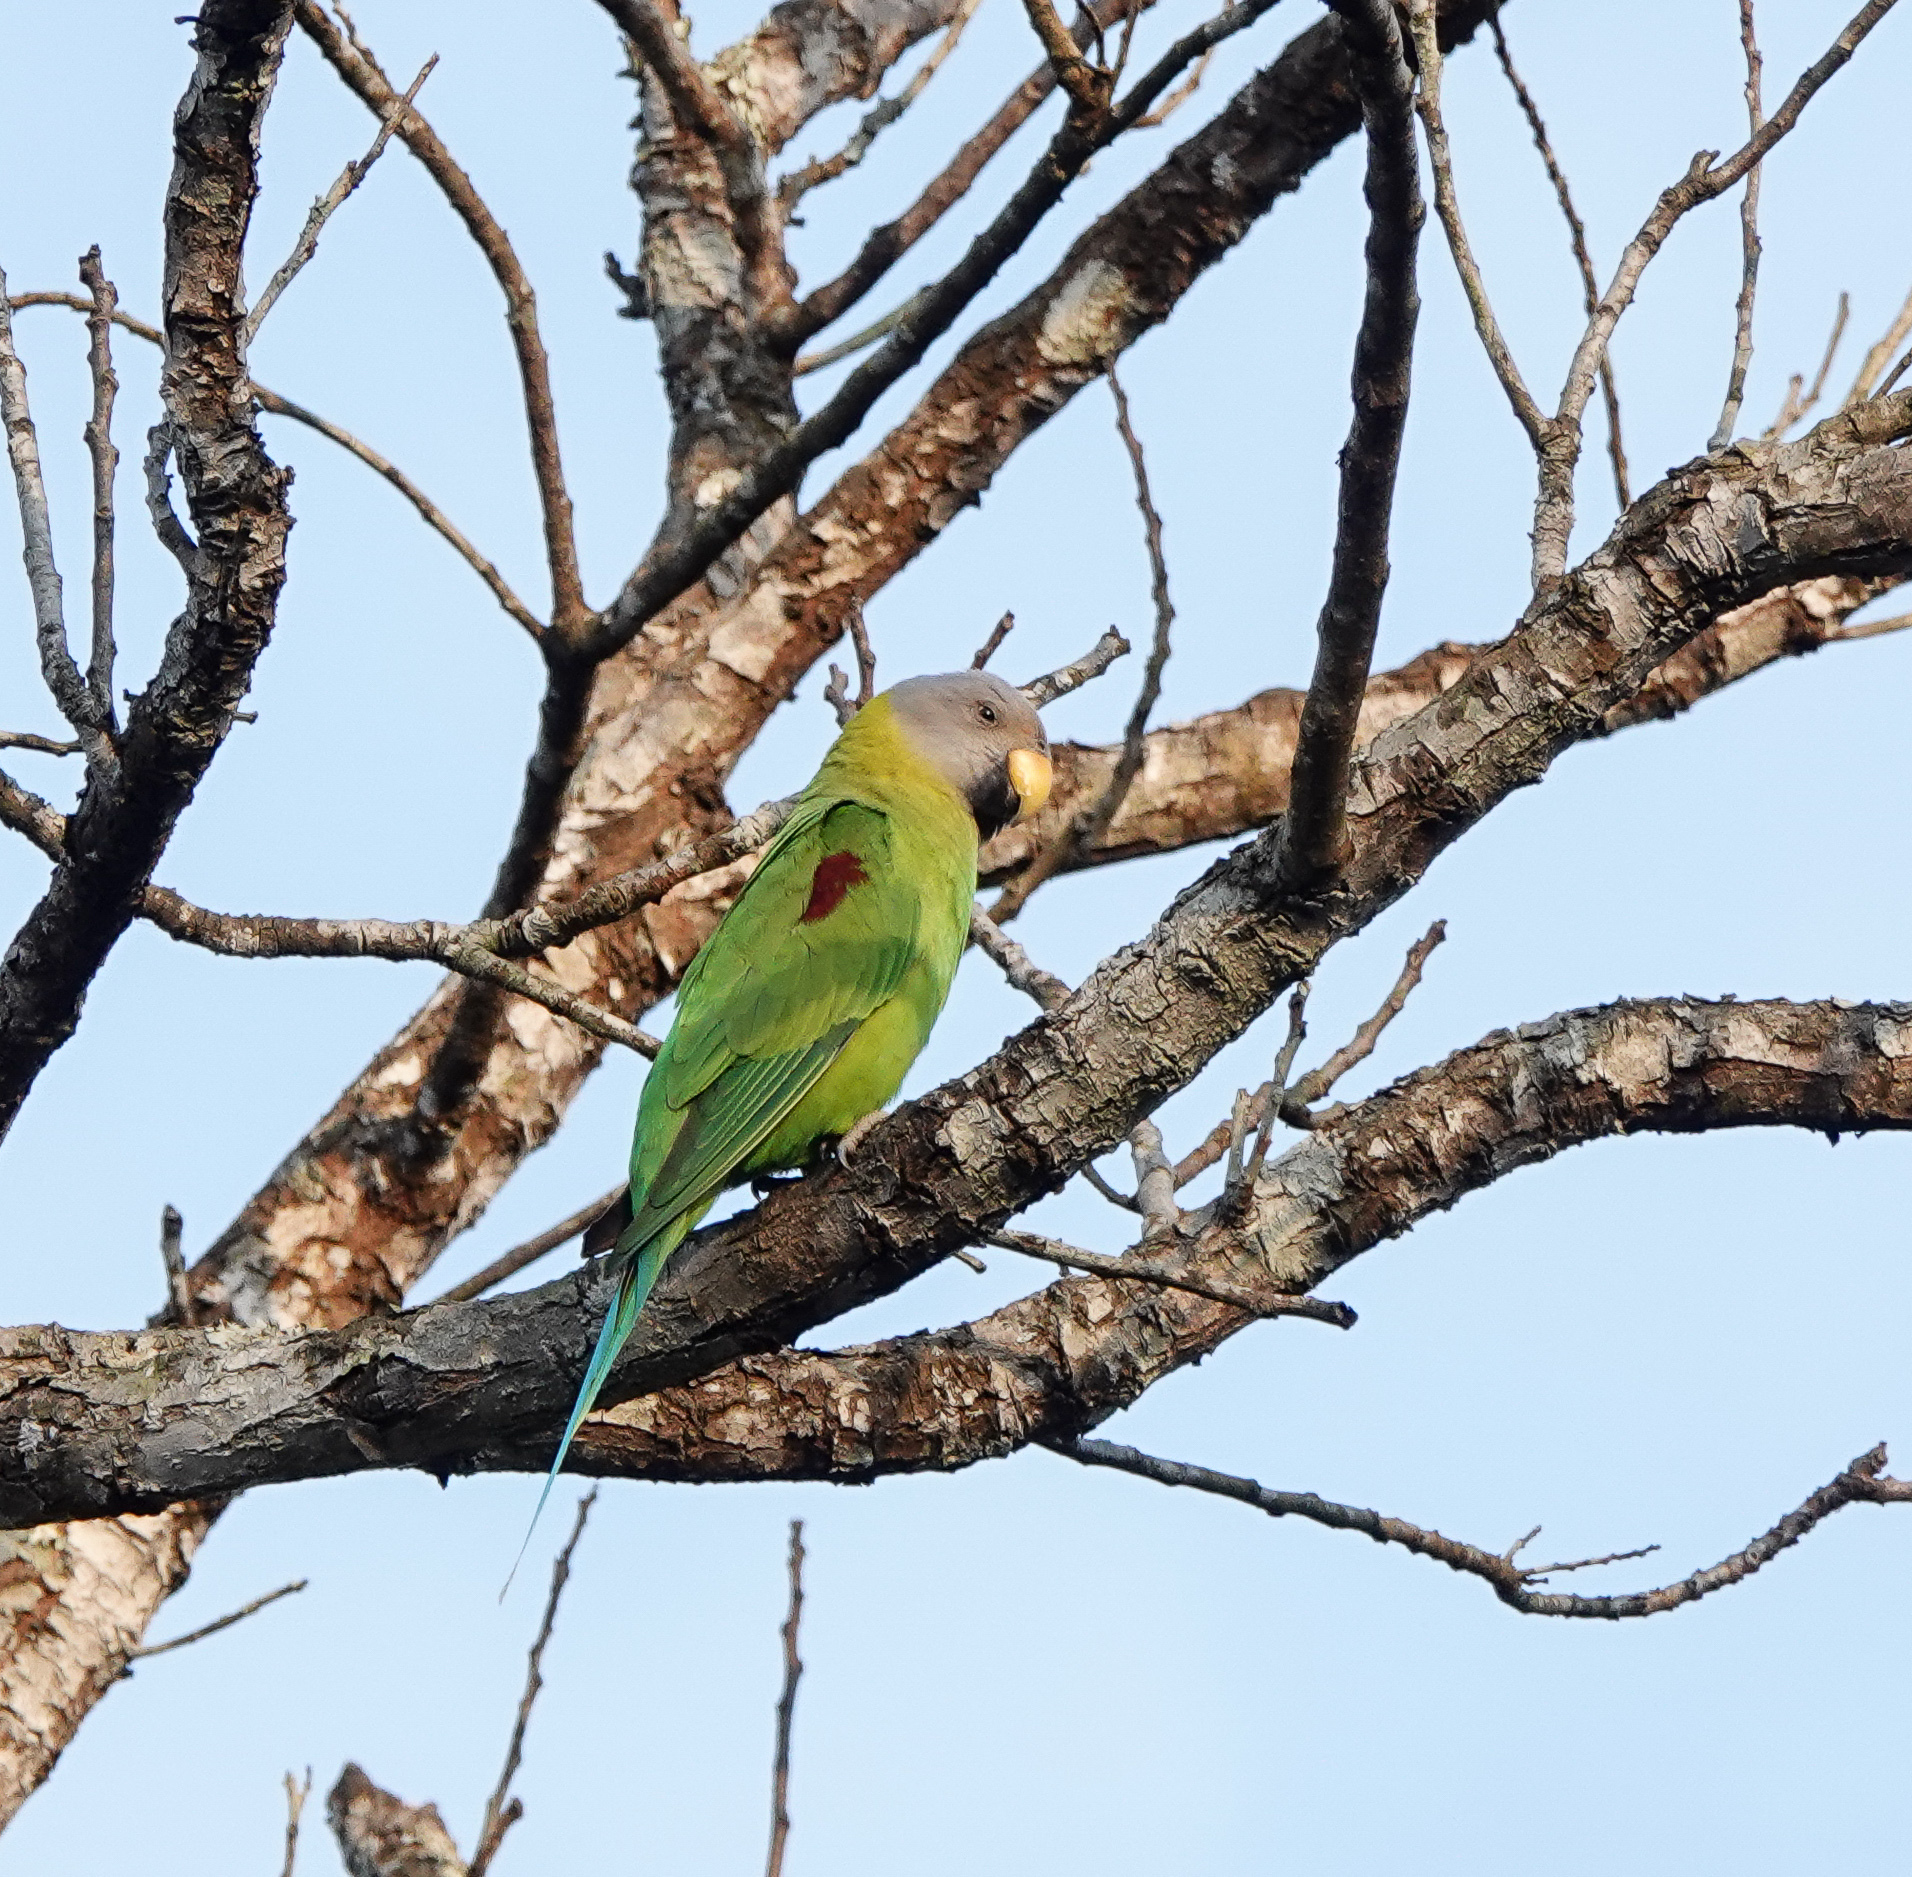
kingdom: Animalia
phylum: Chordata
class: Aves
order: Psittaciformes
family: Psittacidae
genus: Psittacula
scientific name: Psittacula roseata
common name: Blossom-headed parakeet
